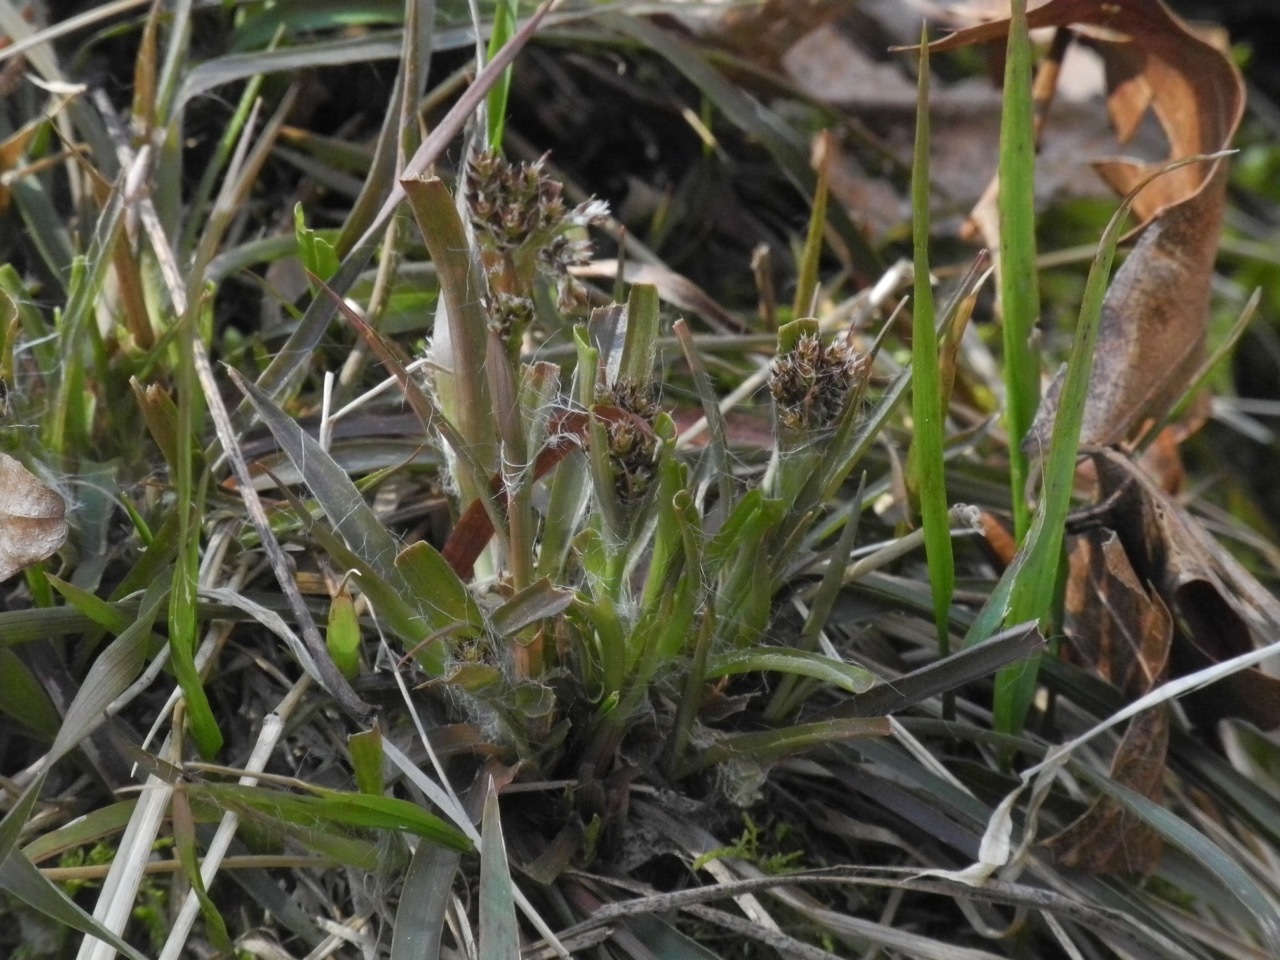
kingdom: Plantae
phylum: Tracheophyta
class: Liliopsida
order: Poales
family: Juncaceae
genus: Luzula
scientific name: Luzula echinata
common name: Hedgehog woodrush
